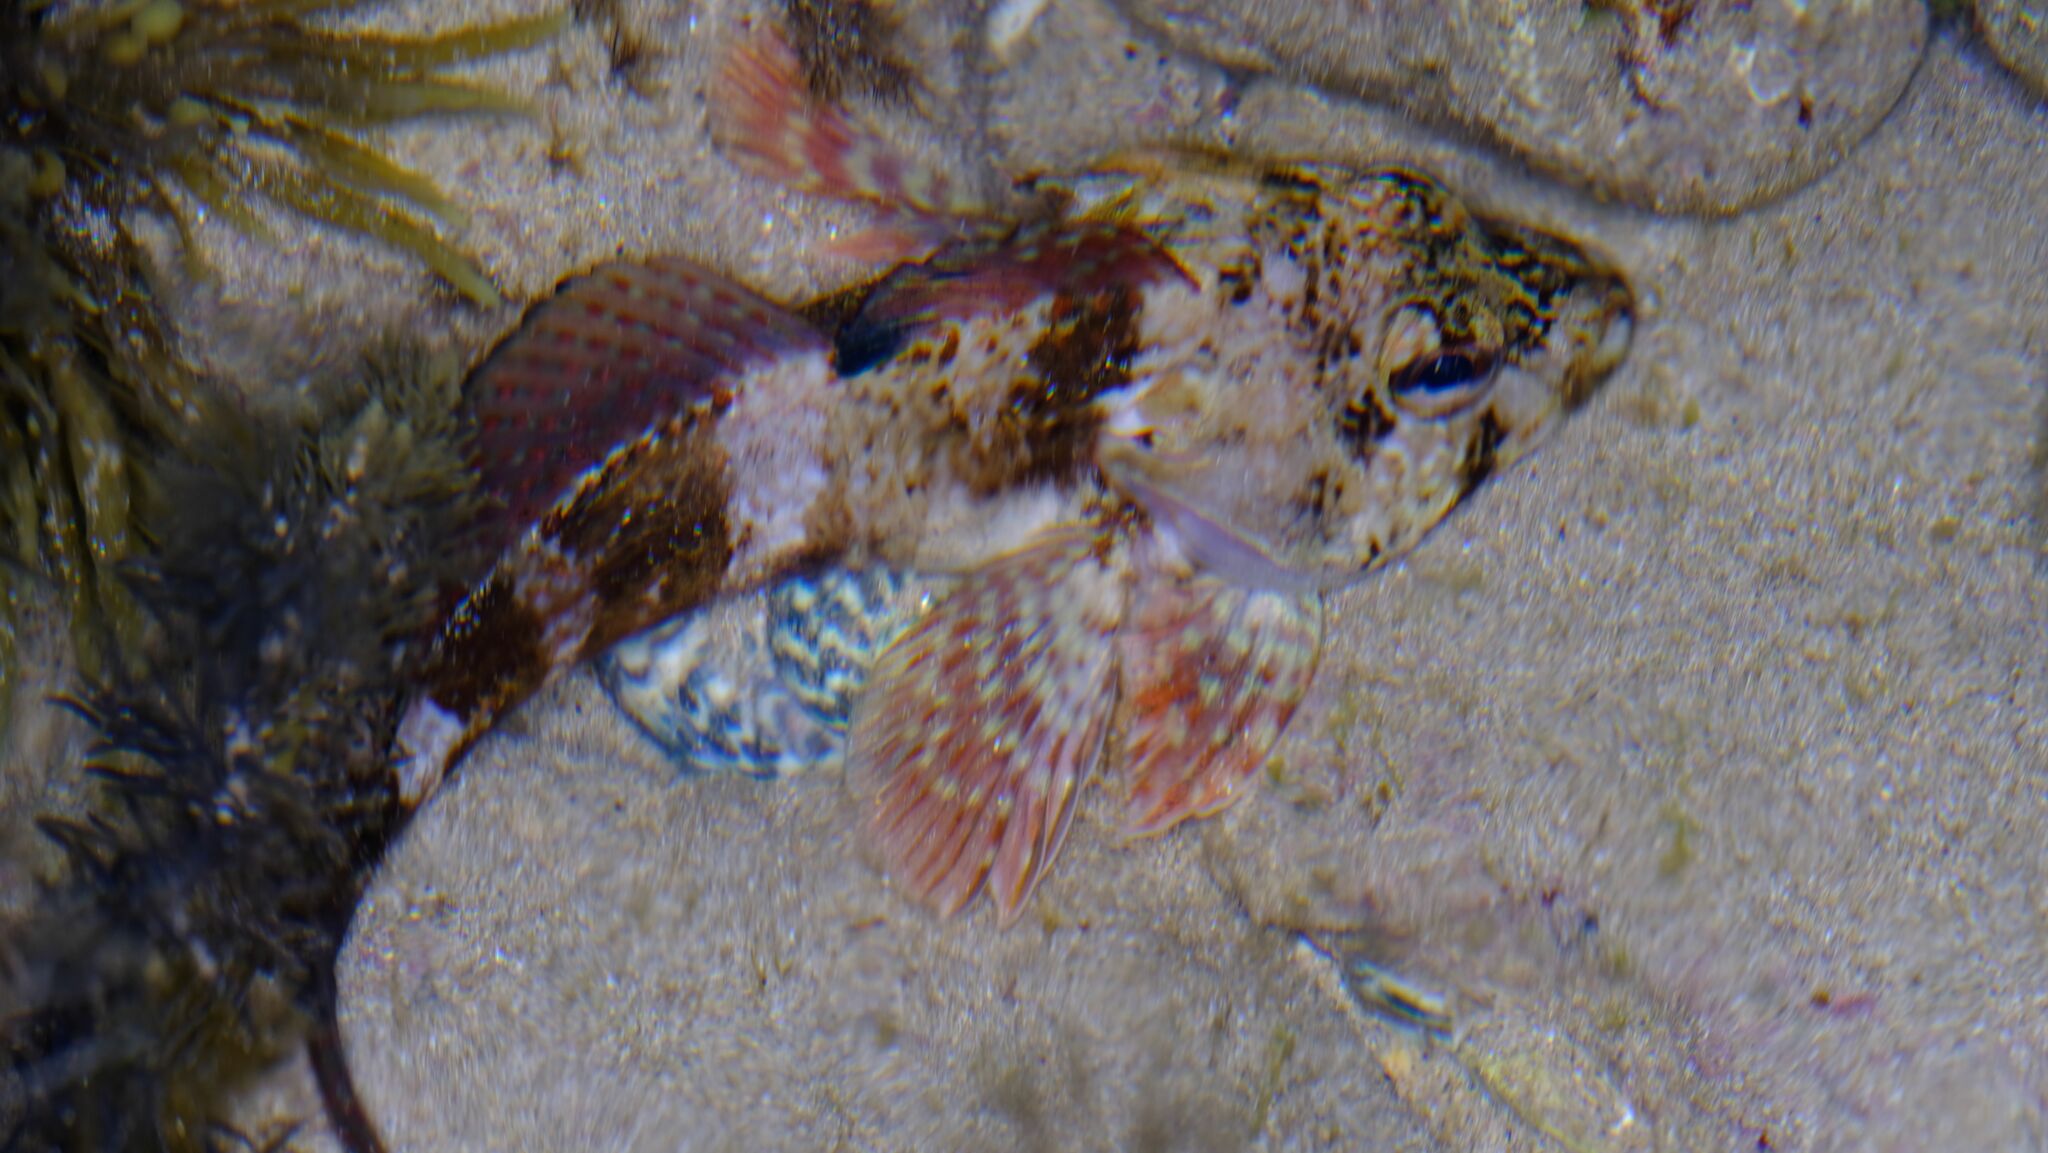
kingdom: Animalia
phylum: Chordata
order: Perciformes
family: Bovichtidae
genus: Bovichtus
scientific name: Bovichtus angustifrons
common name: Dragonet
